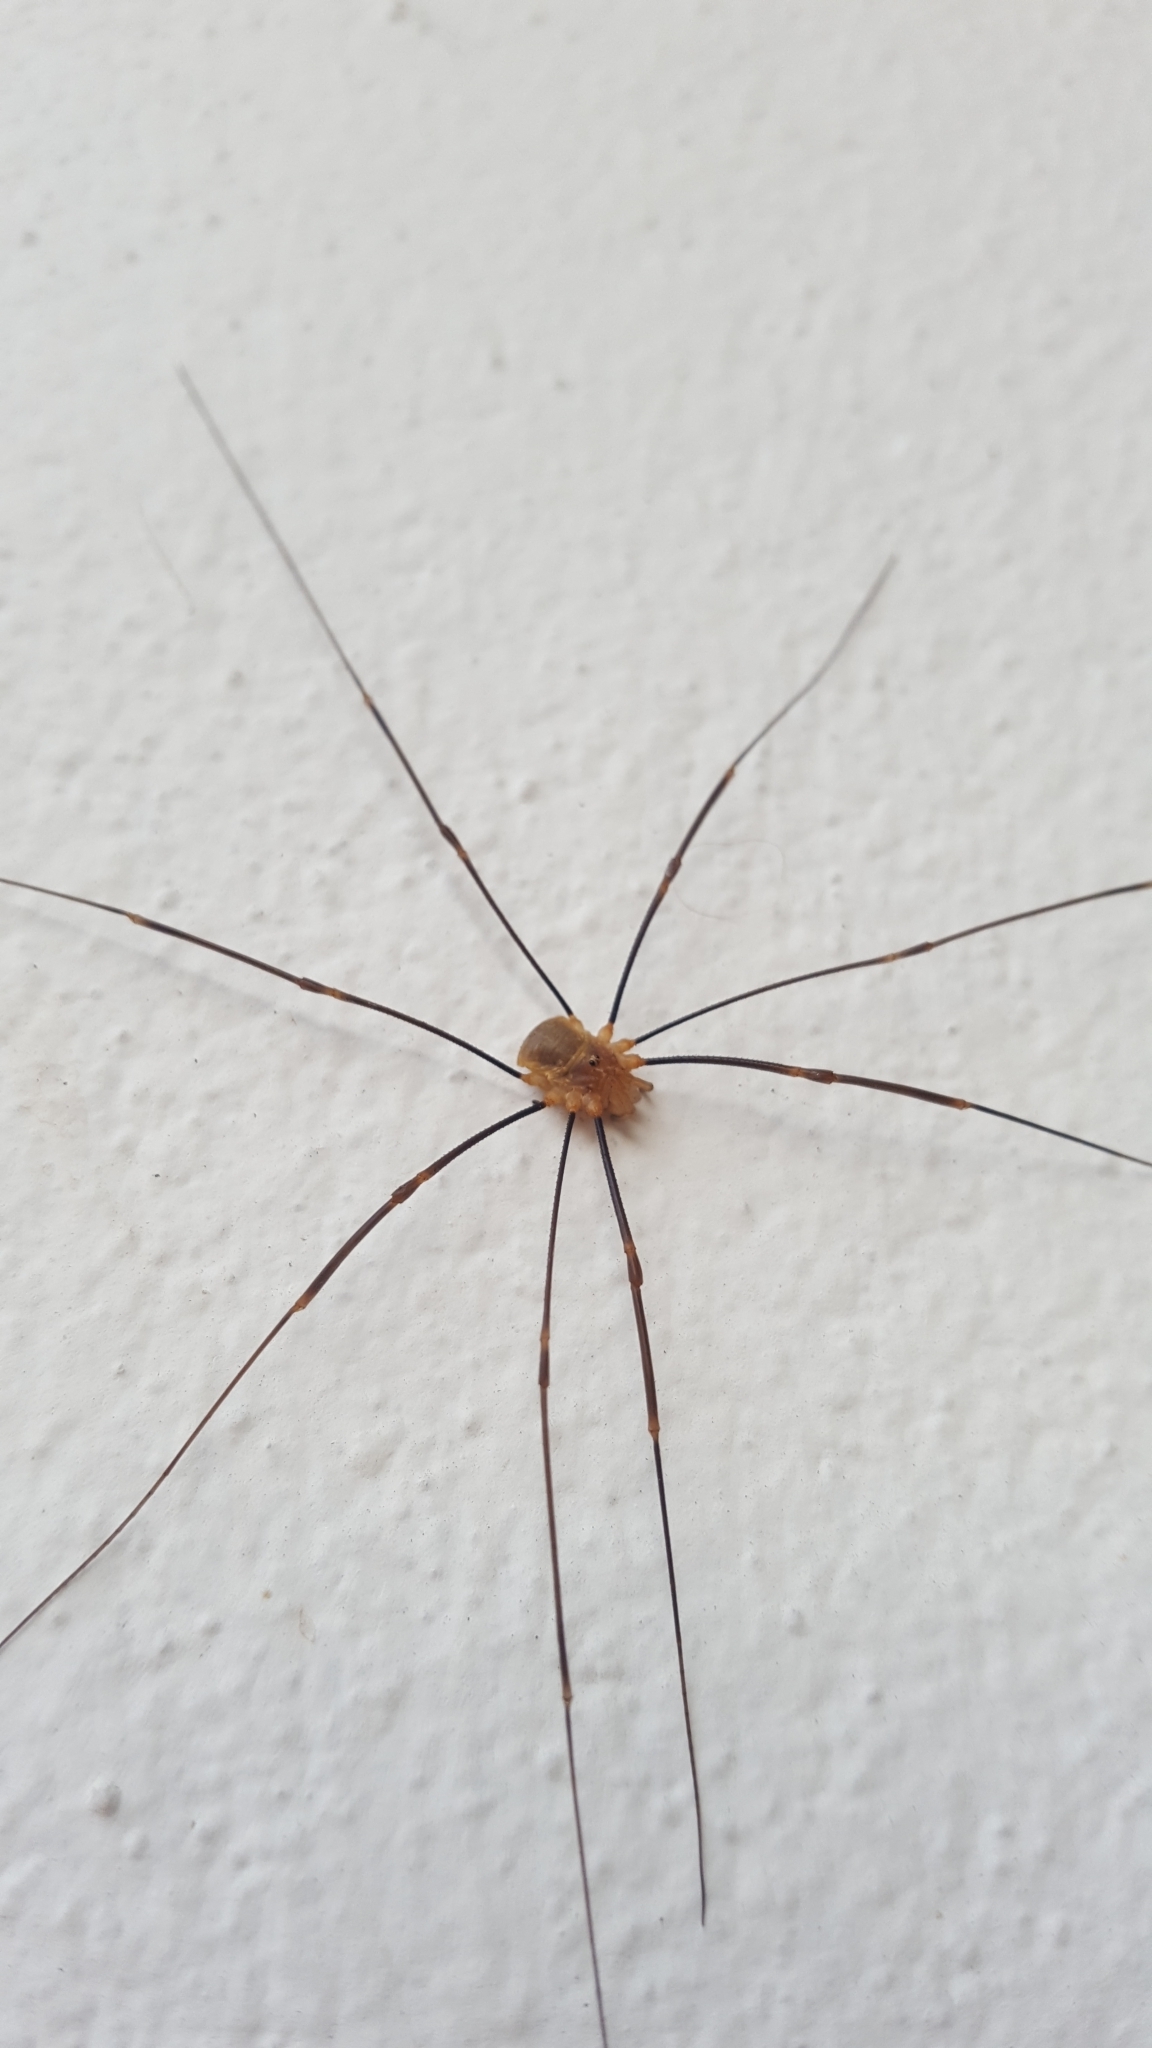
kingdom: Animalia
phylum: Arthropoda
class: Arachnida
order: Opiliones
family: Phalangiidae
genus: Opilio
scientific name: Opilio canestrinii
